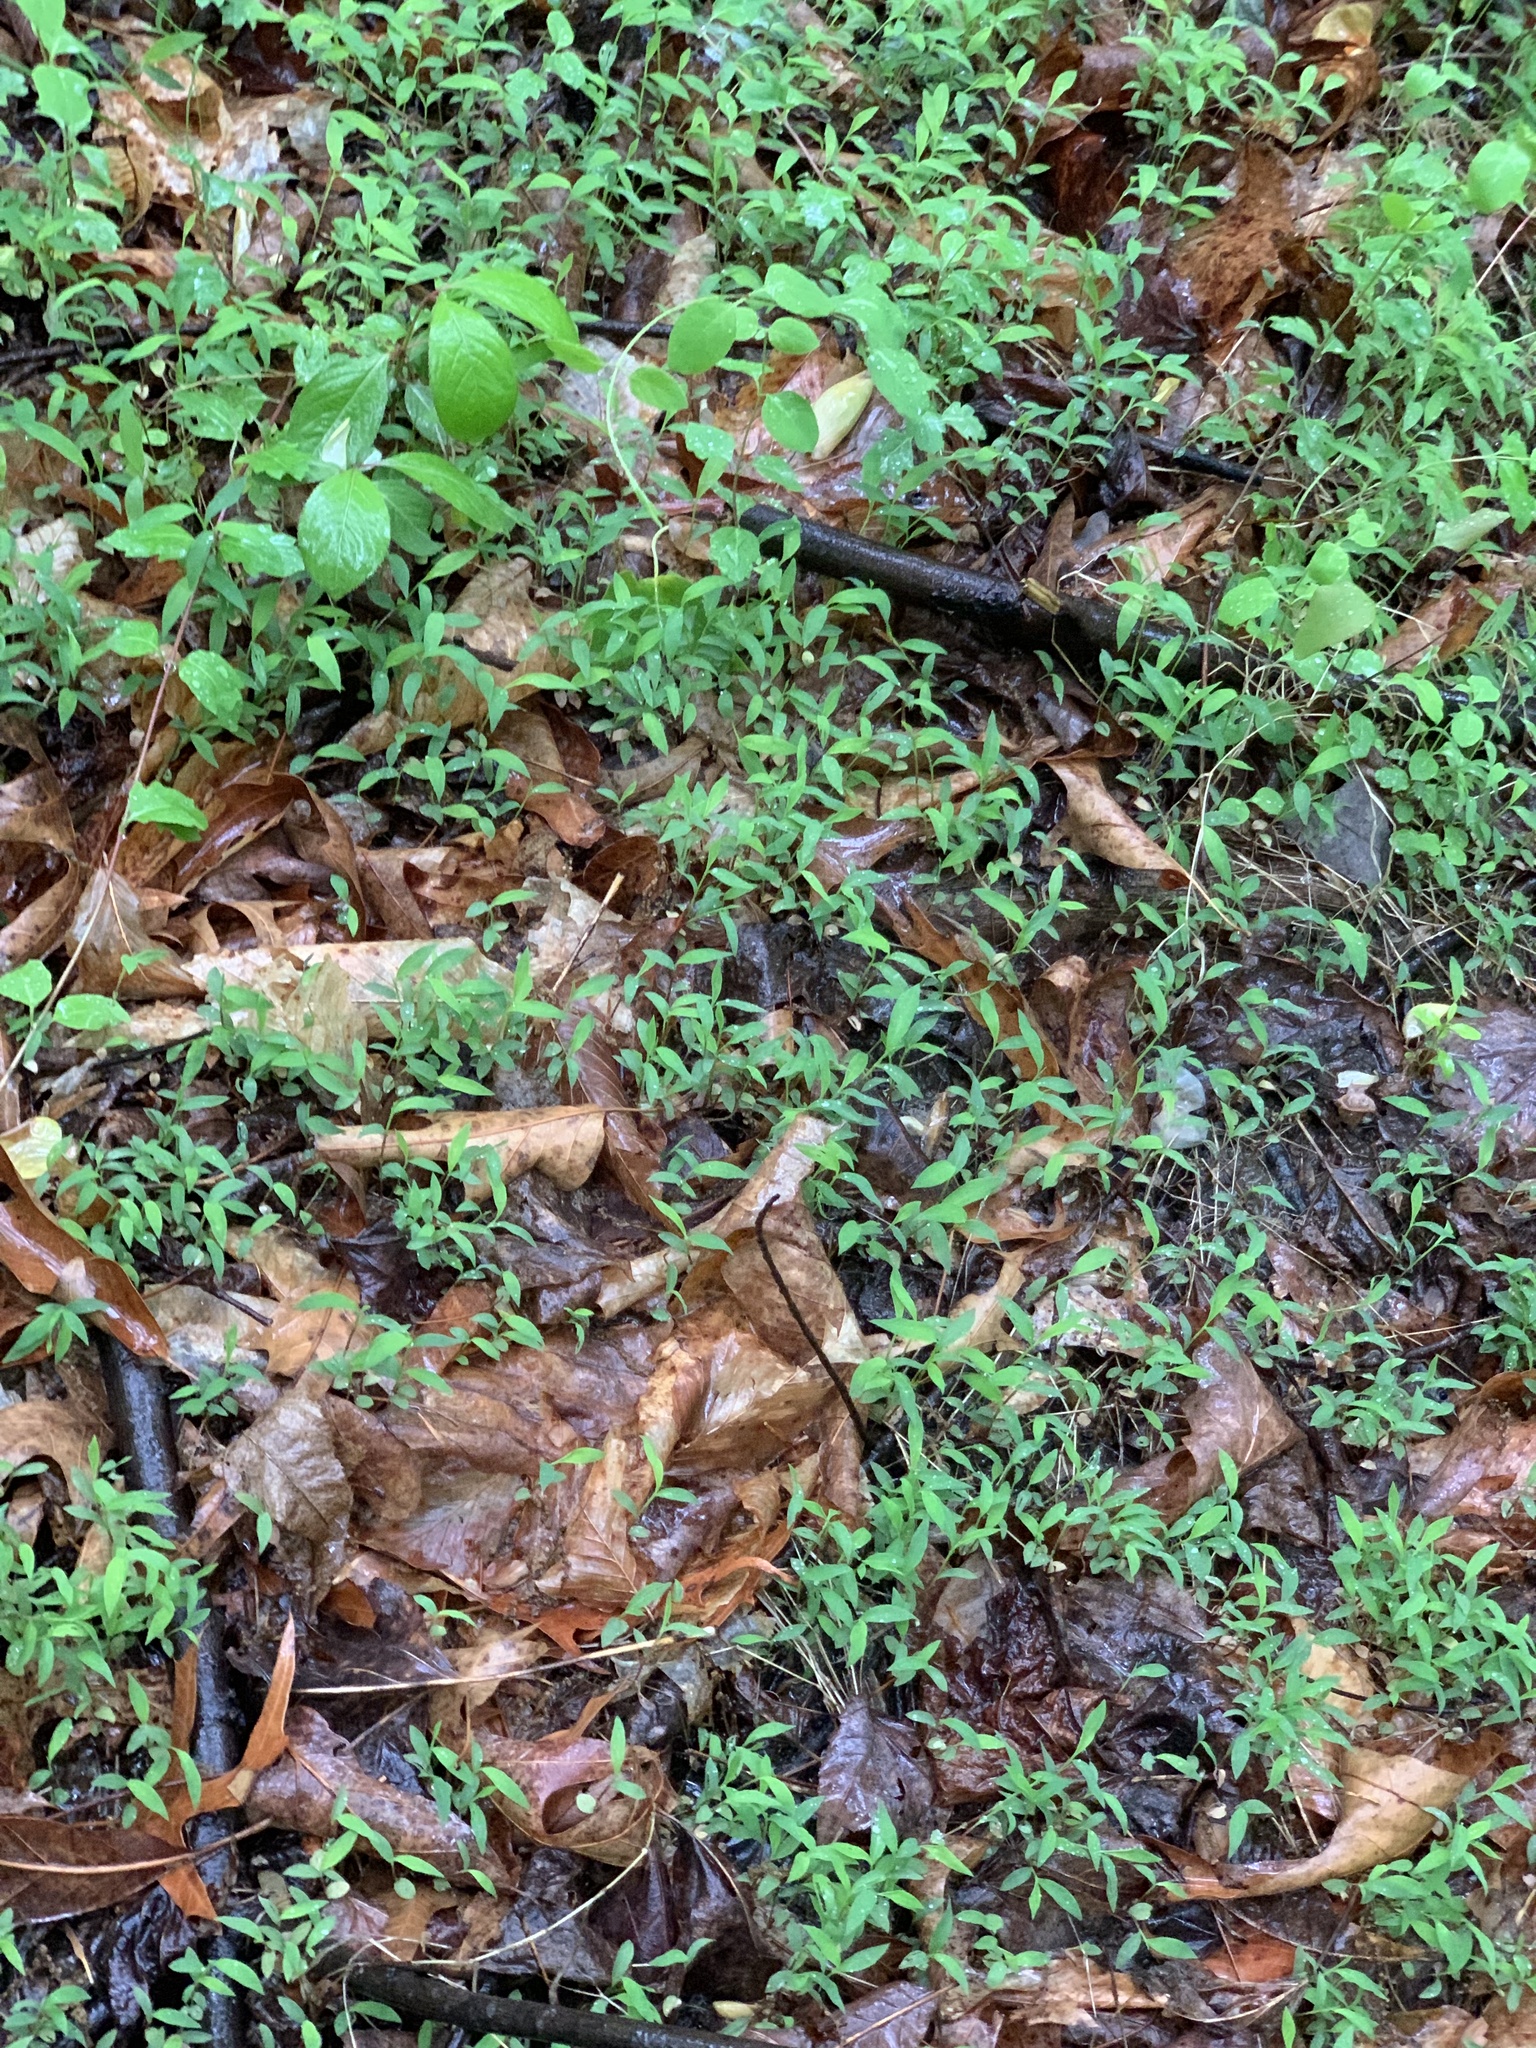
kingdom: Plantae
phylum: Tracheophyta
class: Liliopsida
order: Poales
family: Poaceae
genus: Microstegium
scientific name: Microstegium vimineum
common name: Japanese stiltgrass
